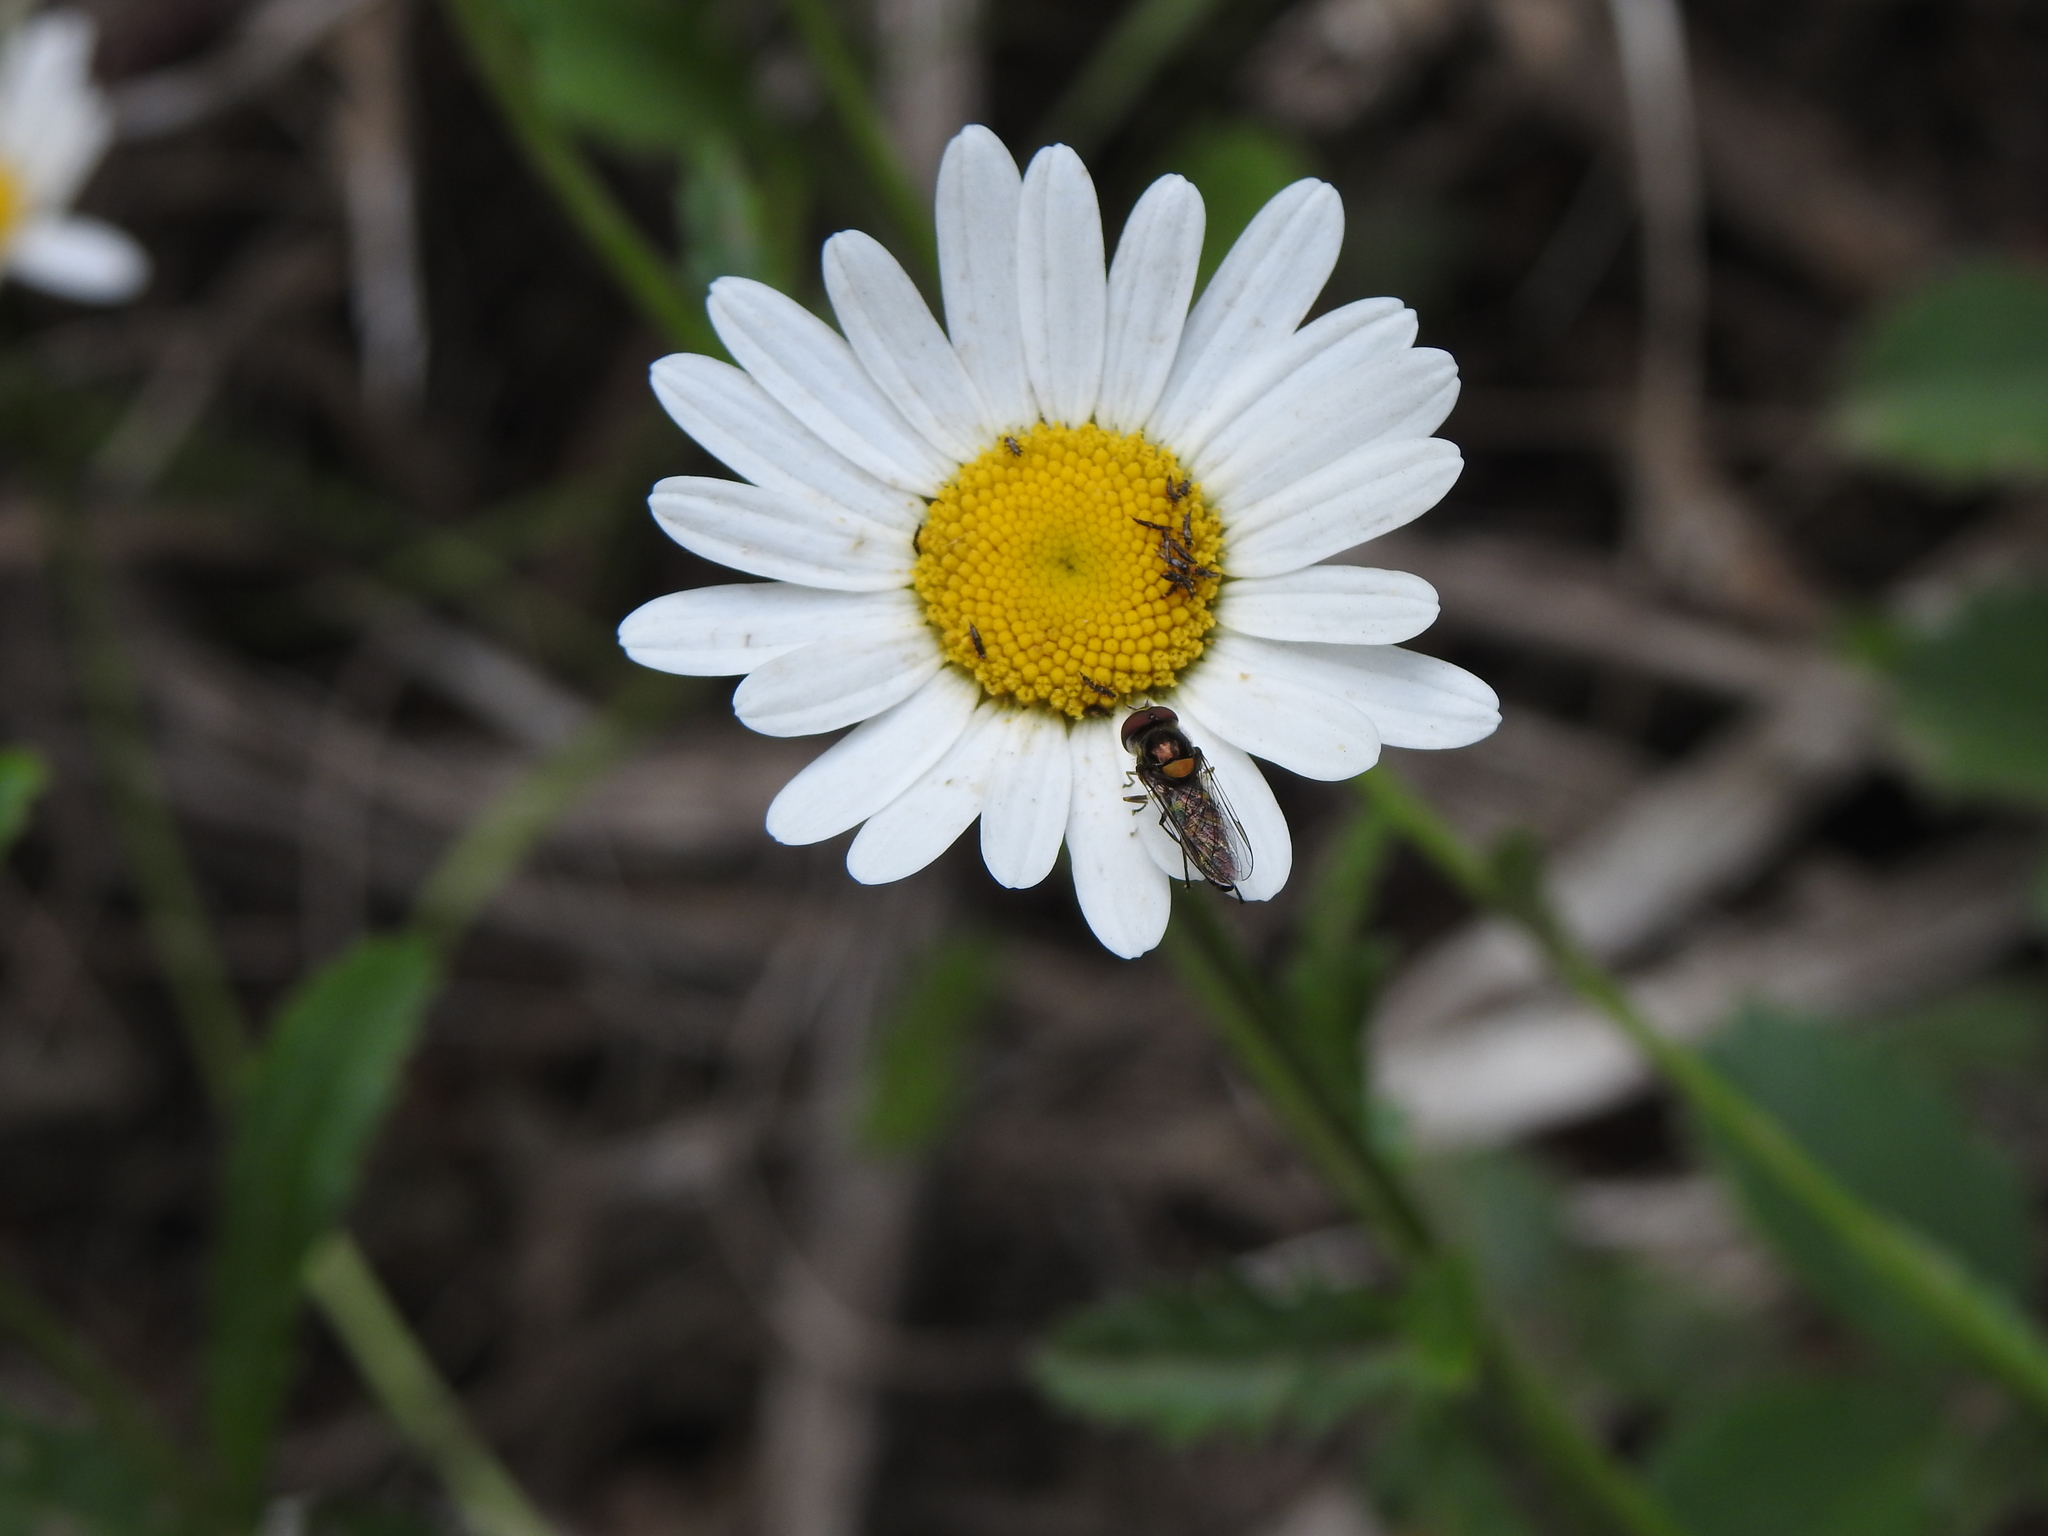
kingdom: Plantae
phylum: Tracheophyta
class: Magnoliopsida
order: Asterales
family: Asteraceae
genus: Leucanthemum
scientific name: Leucanthemum vulgare
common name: Oxeye daisy
